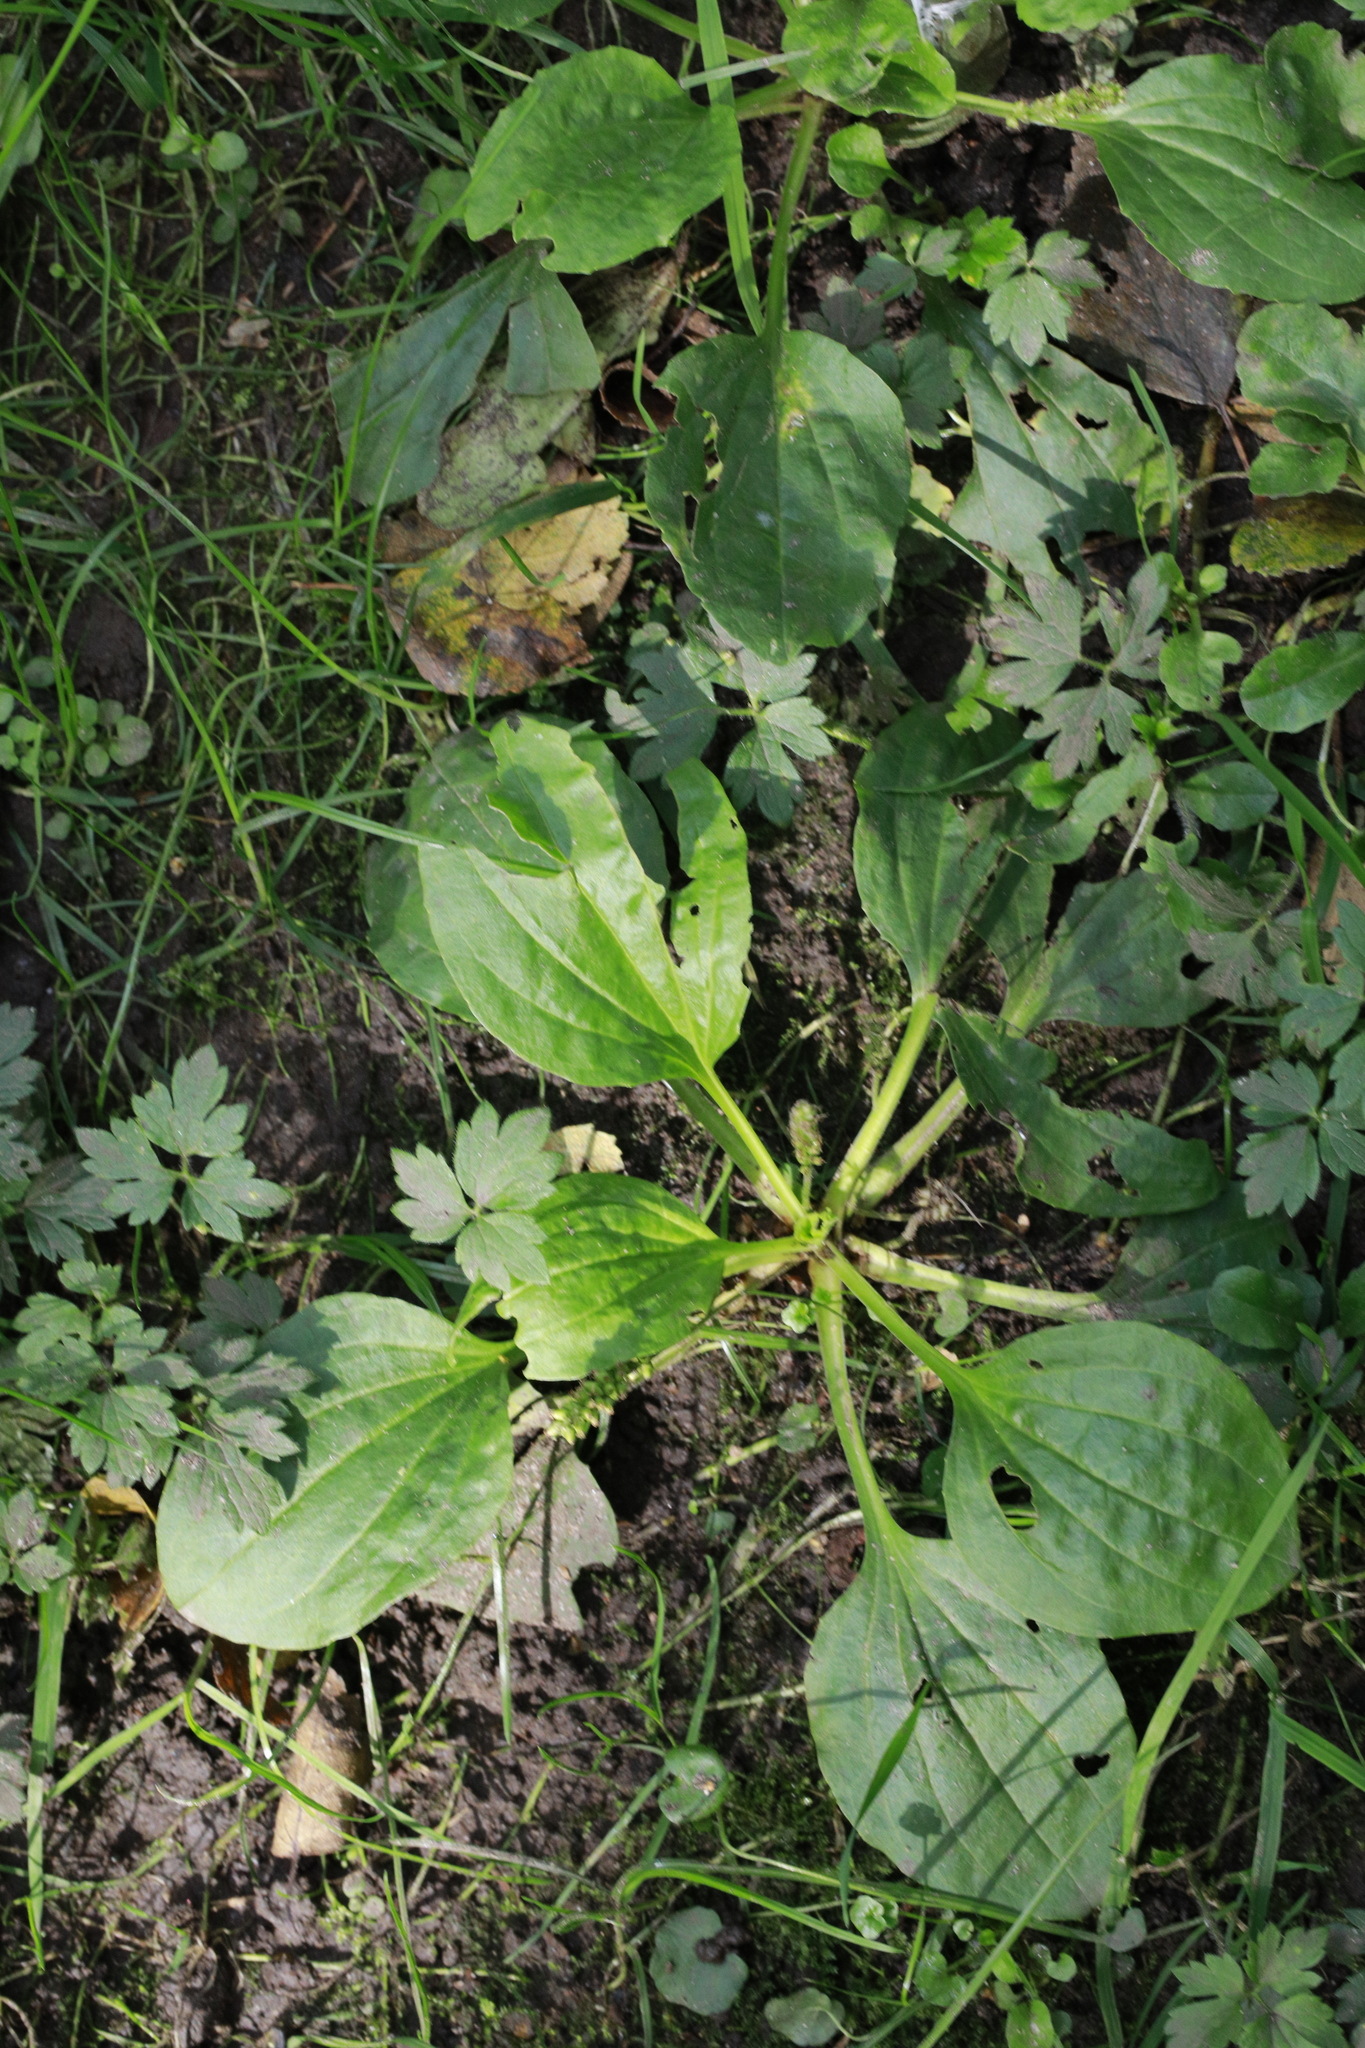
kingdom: Plantae
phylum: Tracheophyta
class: Magnoliopsida
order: Lamiales
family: Plantaginaceae
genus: Plantago
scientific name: Plantago major
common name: Common plantain
